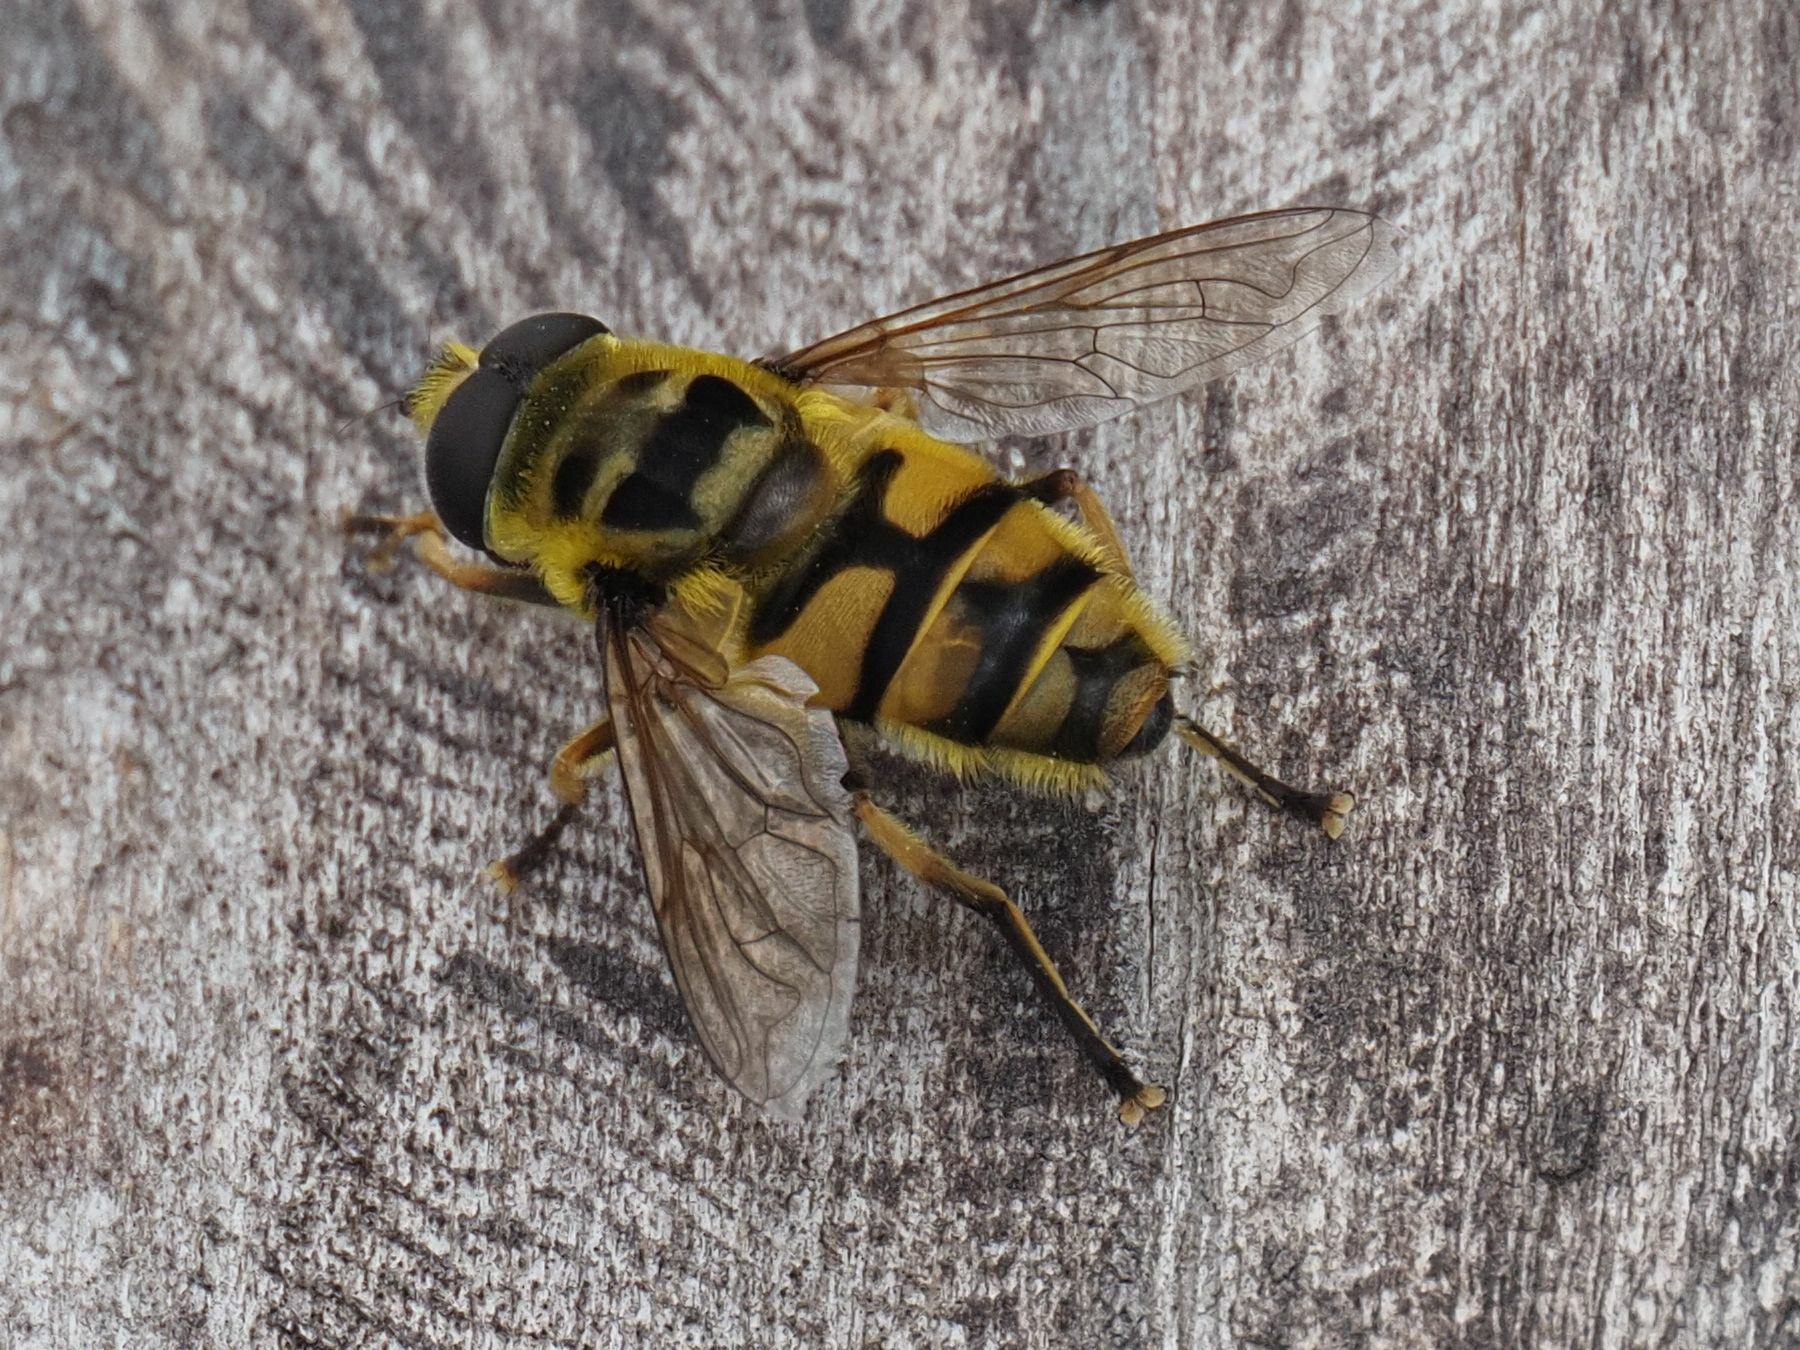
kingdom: Animalia
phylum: Arthropoda
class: Insecta
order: Diptera
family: Syrphidae
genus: Myathropa
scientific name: Myathropa florea
